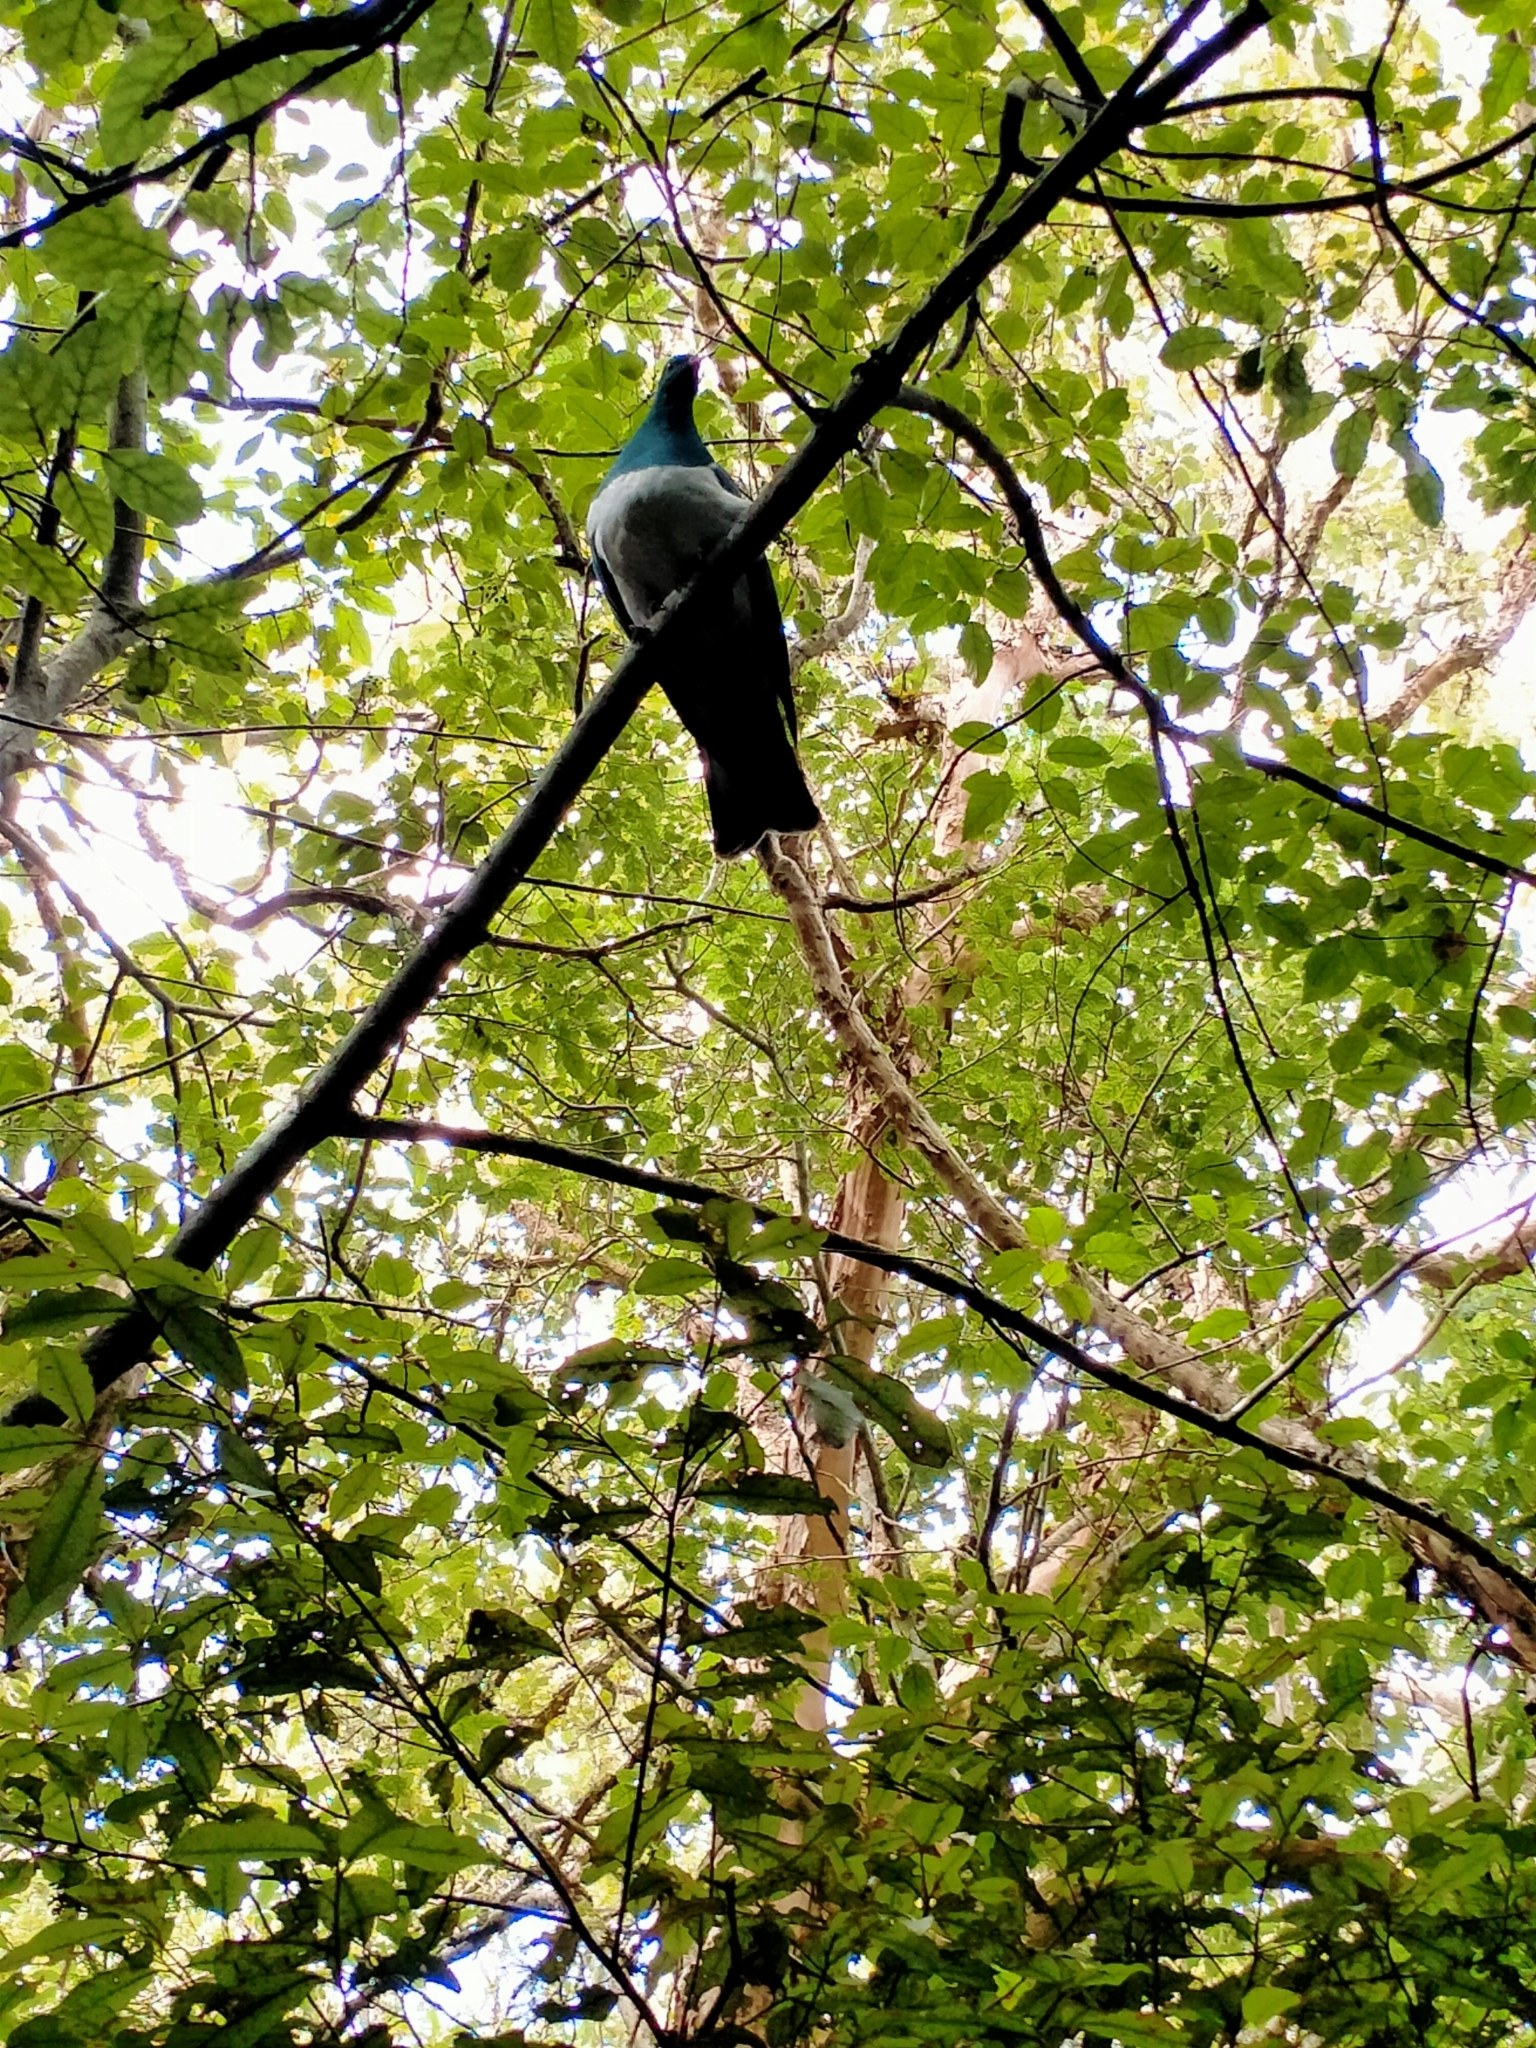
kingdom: Animalia
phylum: Chordata
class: Aves
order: Columbiformes
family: Columbidae
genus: Hemiphaga
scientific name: Hemiphaga novaeseelandiae
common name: New zealand pigeon
